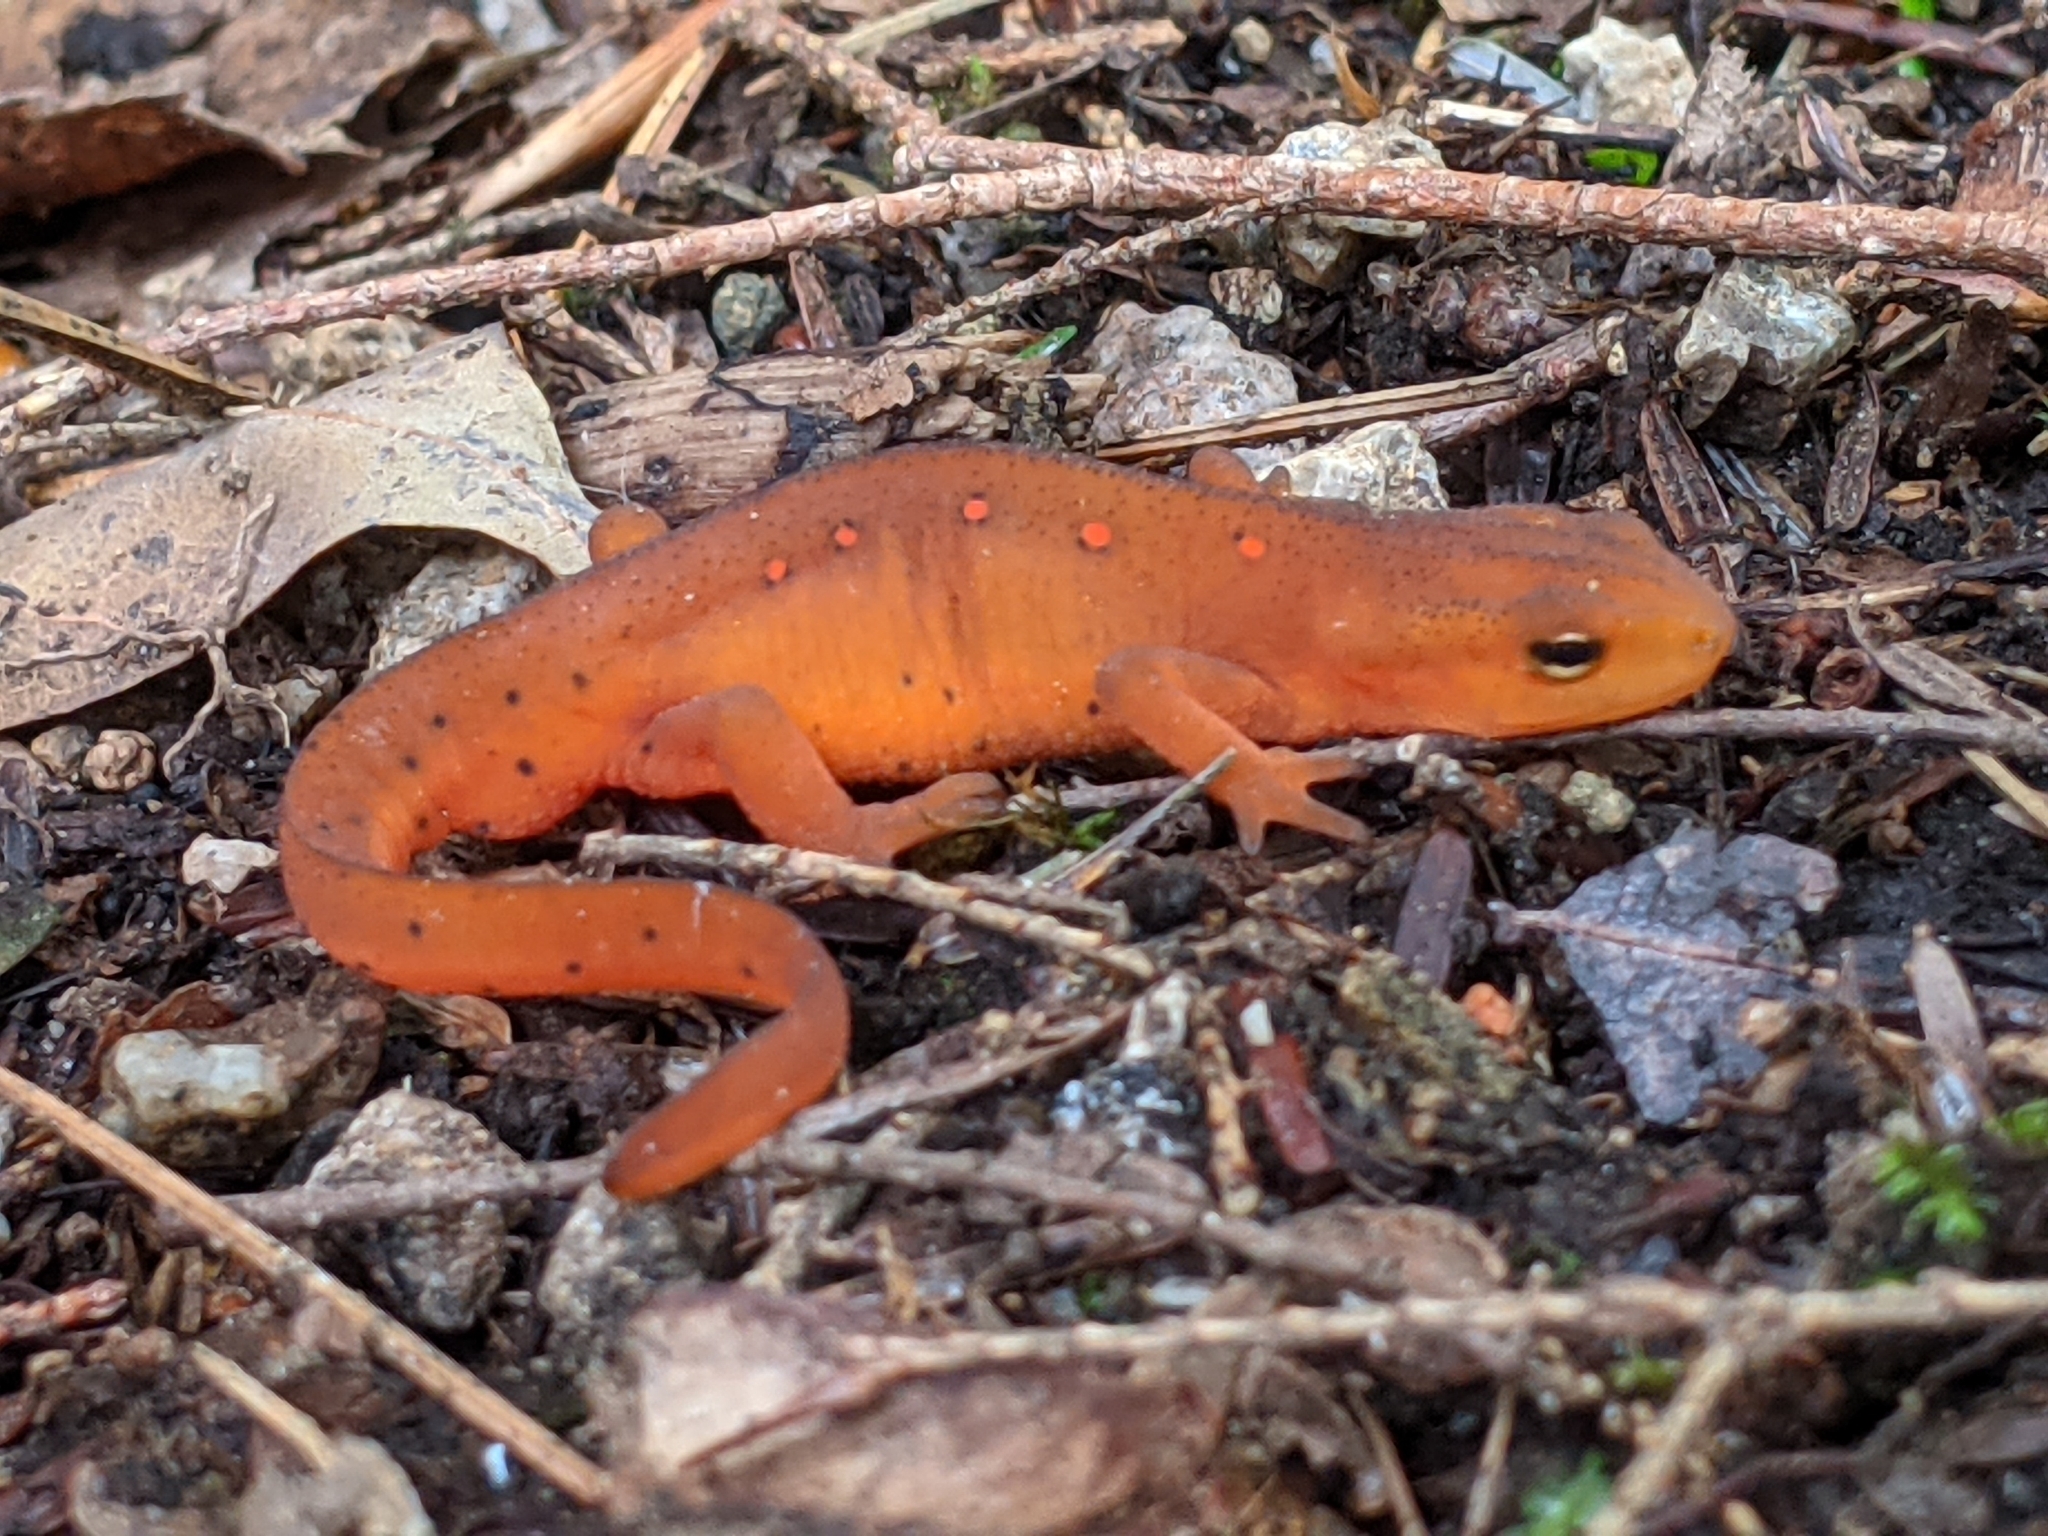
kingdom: Animalia
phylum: Chordata
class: Amphibia
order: Caudata
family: Salamandridae
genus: Notophthalmus
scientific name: Notophthalmus viridescens
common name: Eastern newt
